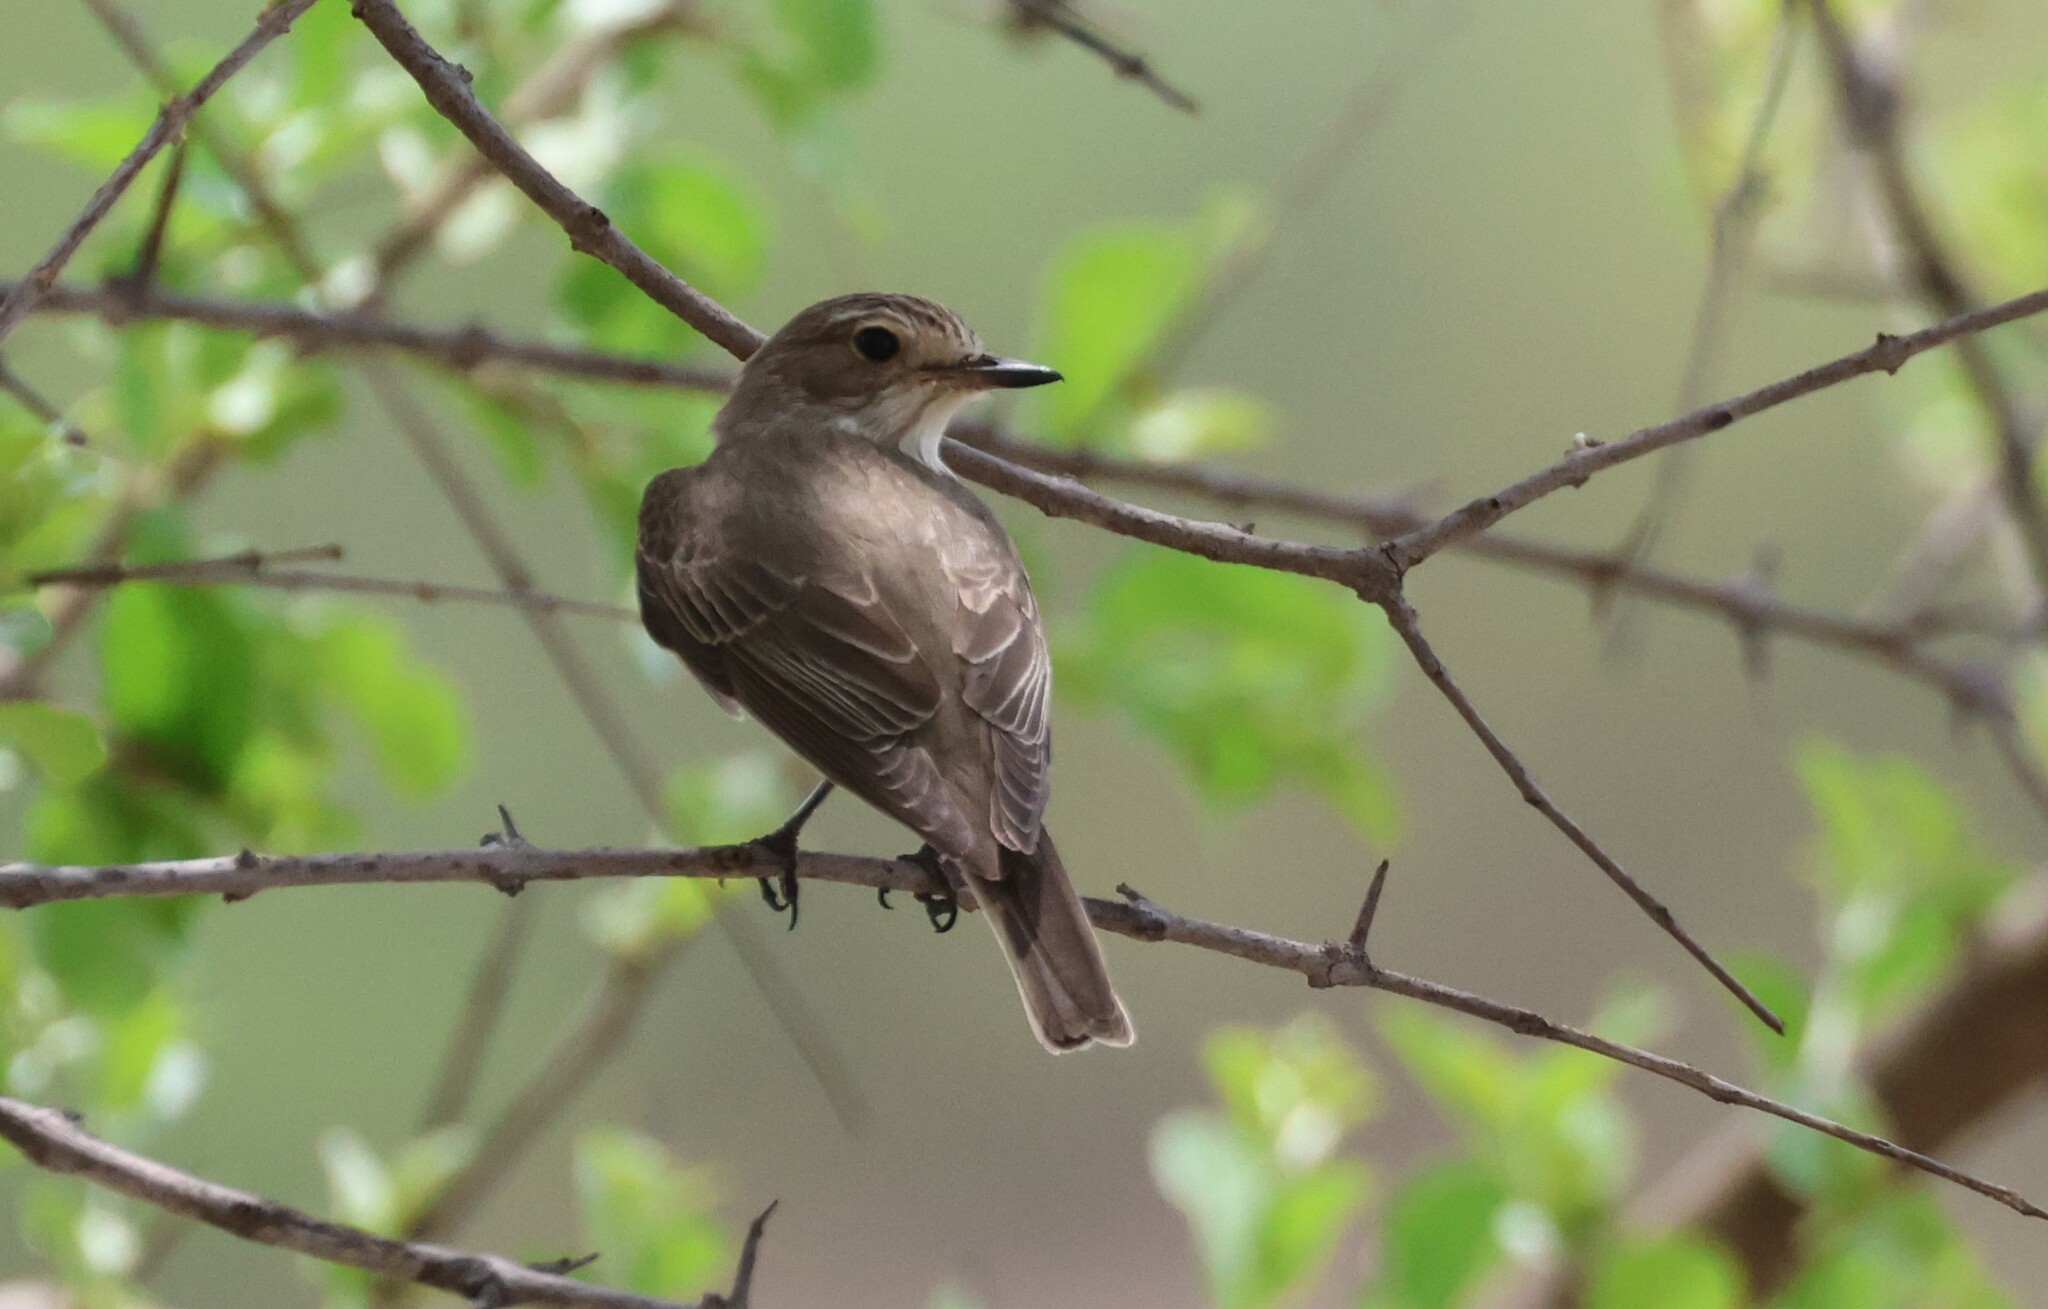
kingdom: Animalia
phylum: Chordata
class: Aves
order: Passeriformes
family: Muscicapidae
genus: Muscicapa
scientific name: Muscicapa striata
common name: Spotted flycatcher
